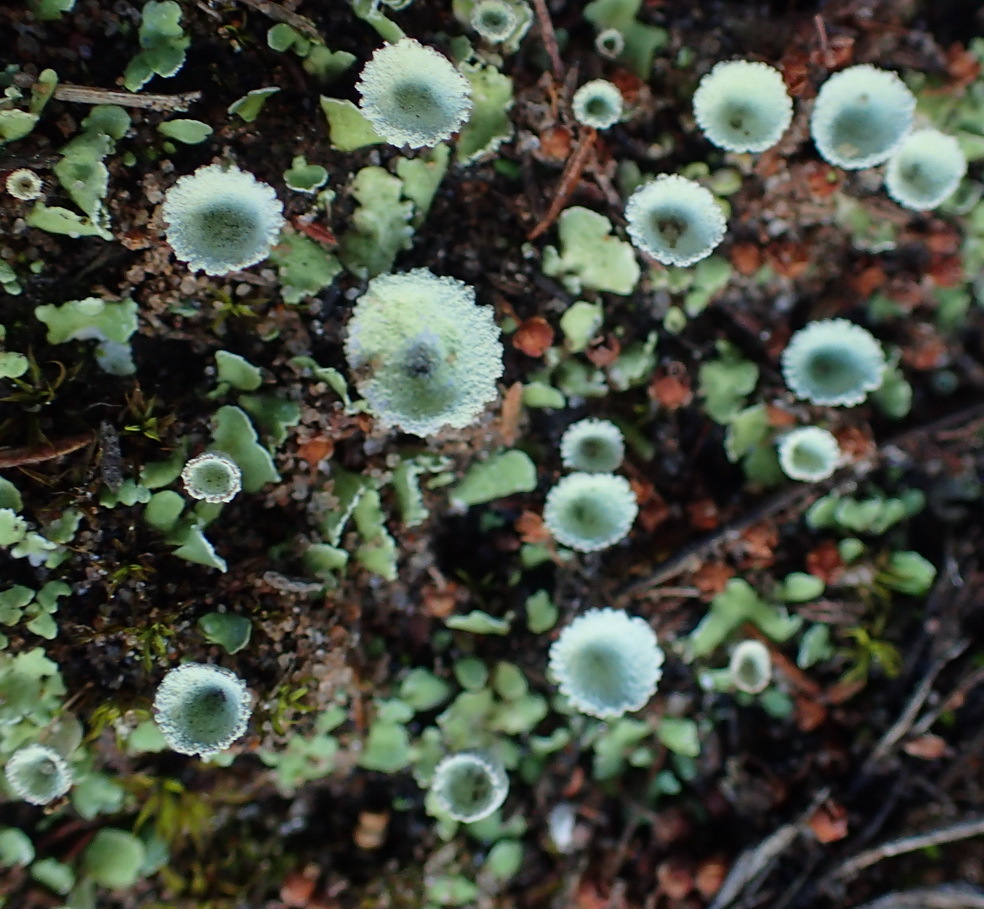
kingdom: Fungi
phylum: Ascomycota
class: Lecanoromycetes
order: Lecanorales
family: Cladoniaceae
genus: Cladonia
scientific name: Cladonia fimbriata
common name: Powdered trumpet lichen
